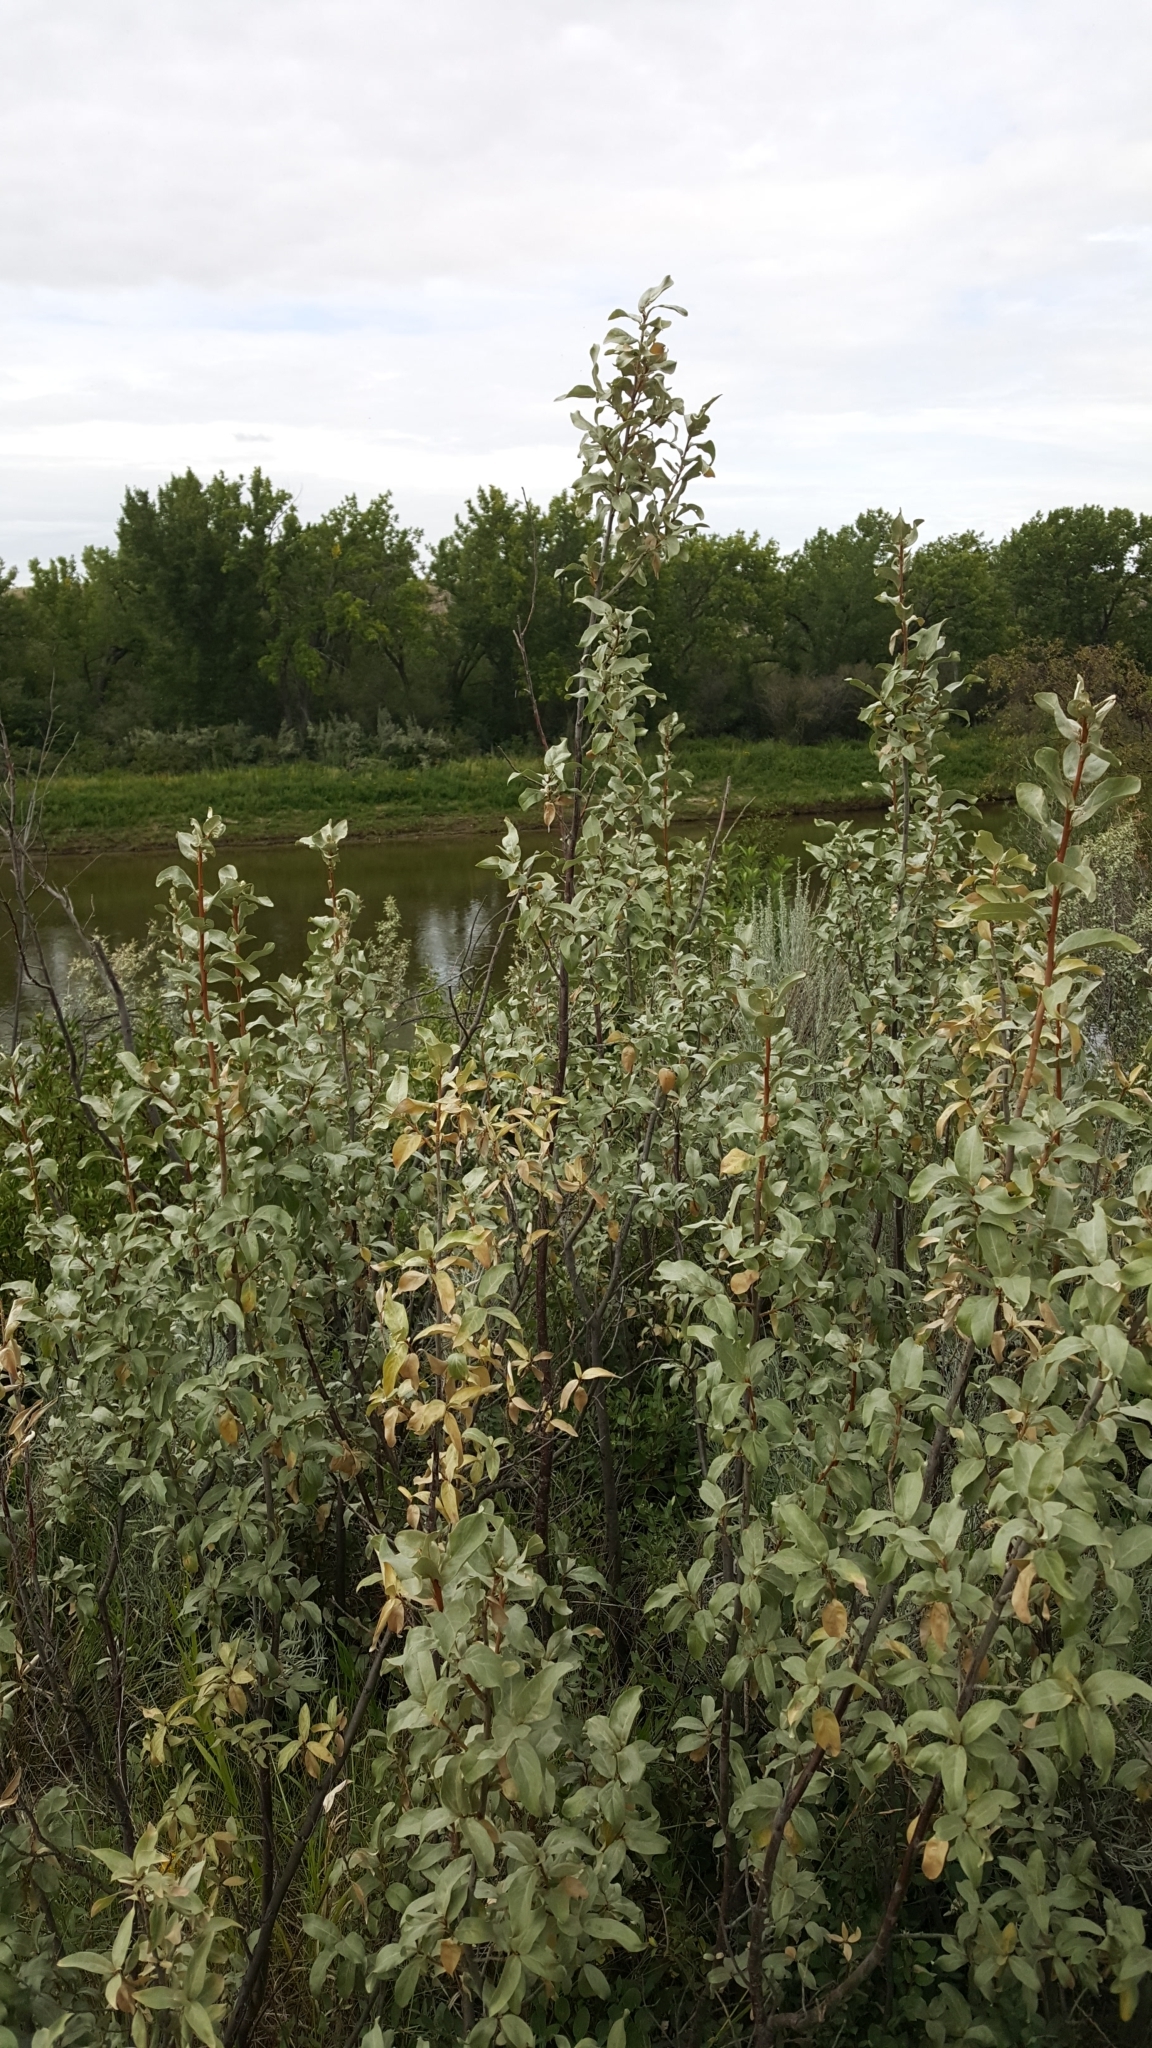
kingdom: Plantae
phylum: Tracheophyta
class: Magnoliopsida
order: Rosales
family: Elaeagnaceae
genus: Elaeagnus
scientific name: Elaeagnus commutata
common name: Silverberry
